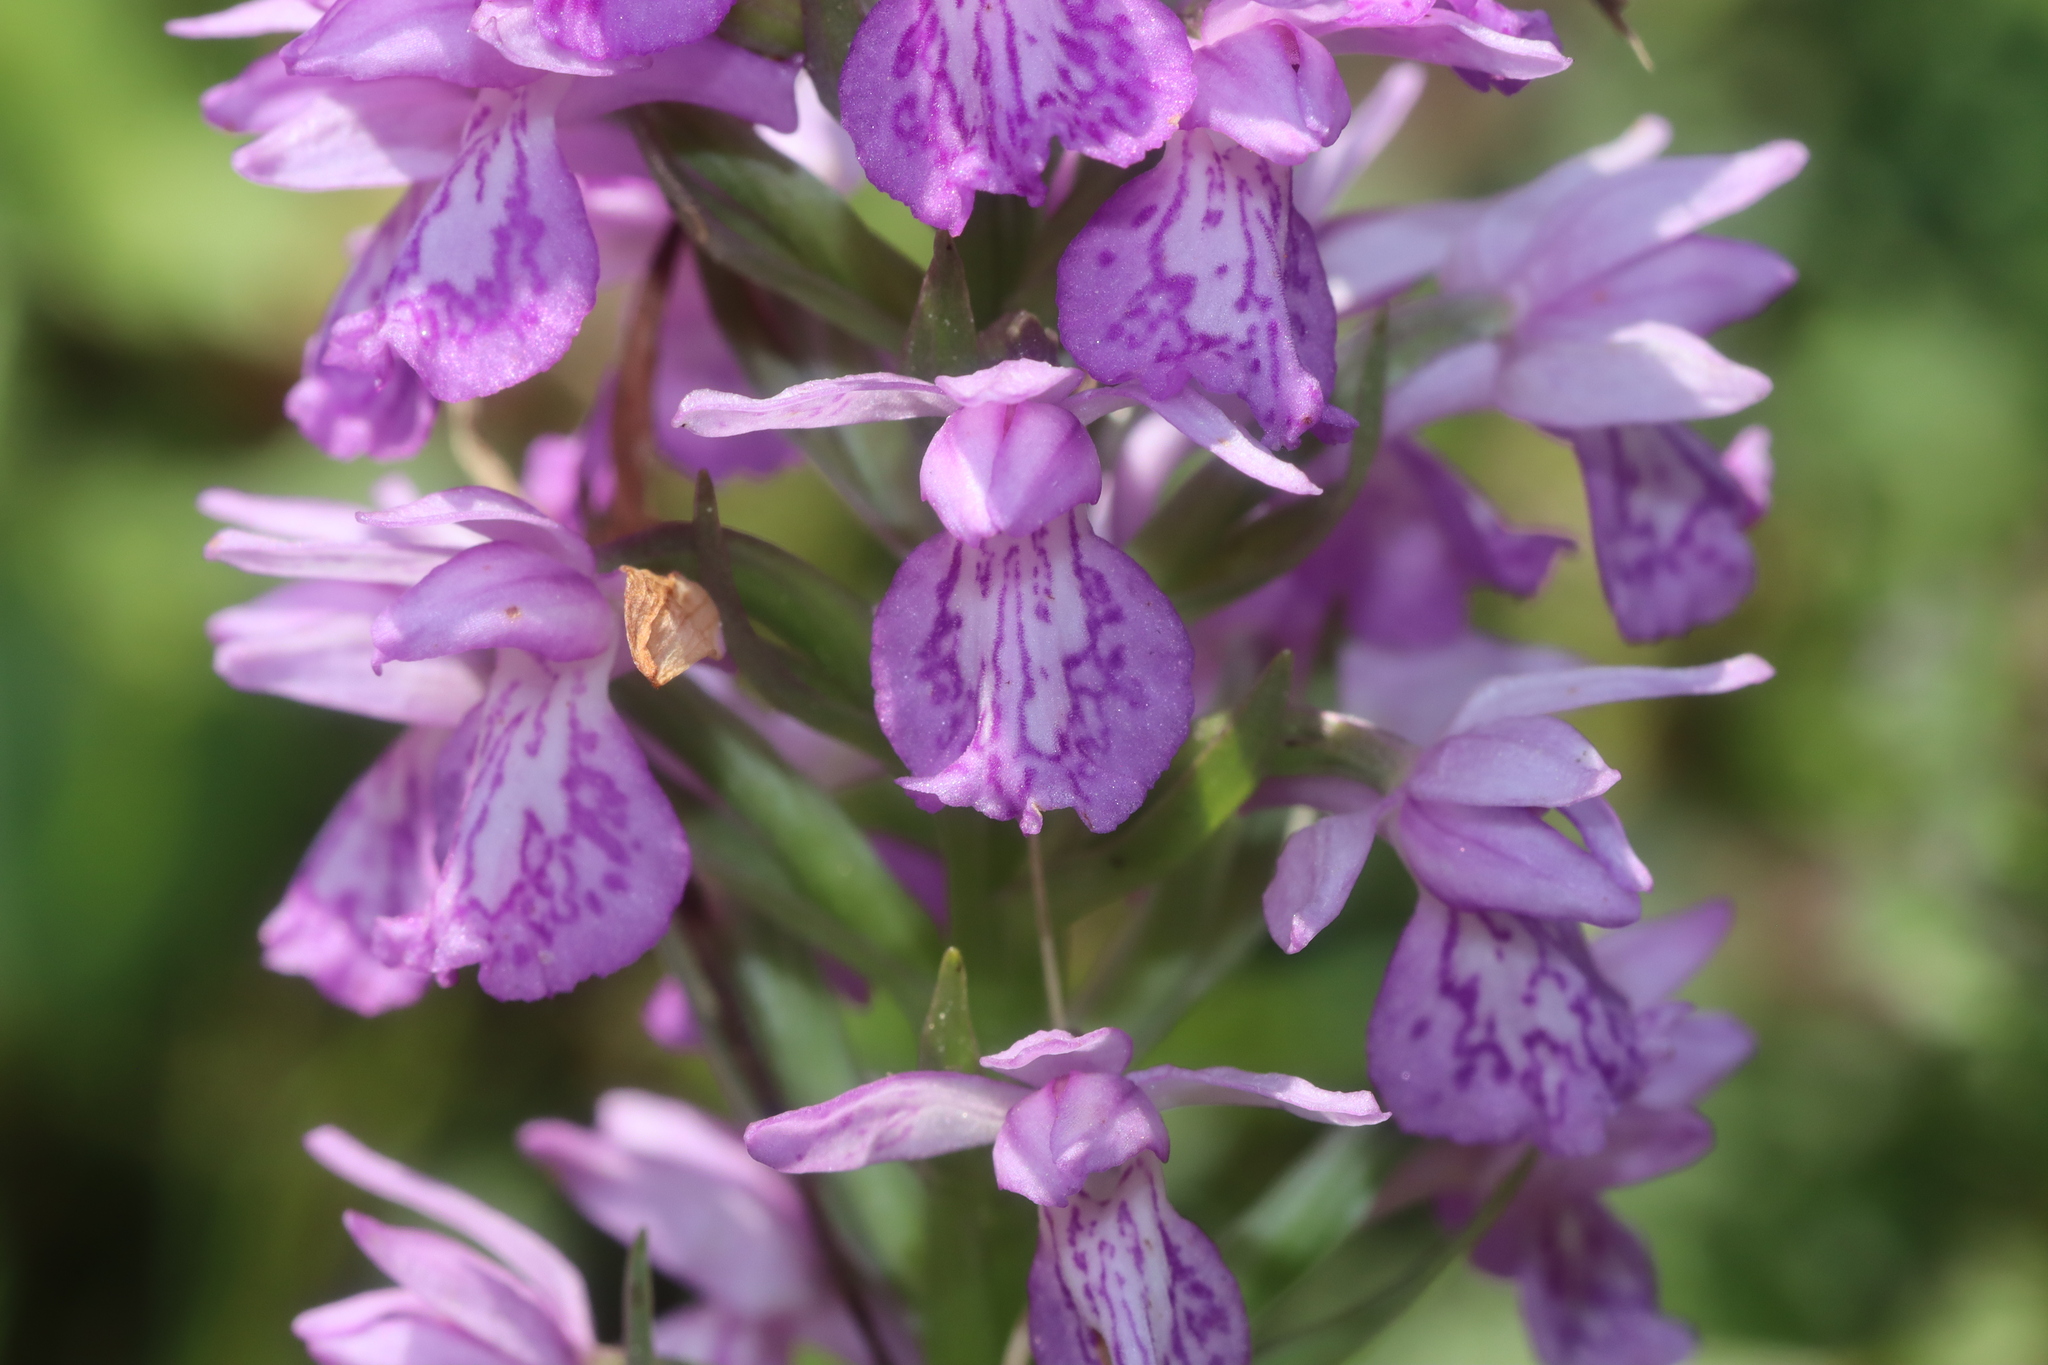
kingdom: Plantae
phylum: Tracheophyta
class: Liliopsida
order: Asparagales
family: Orchidaceae
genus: Dactylorhiza
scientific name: Dactylorhiza hatagirea
